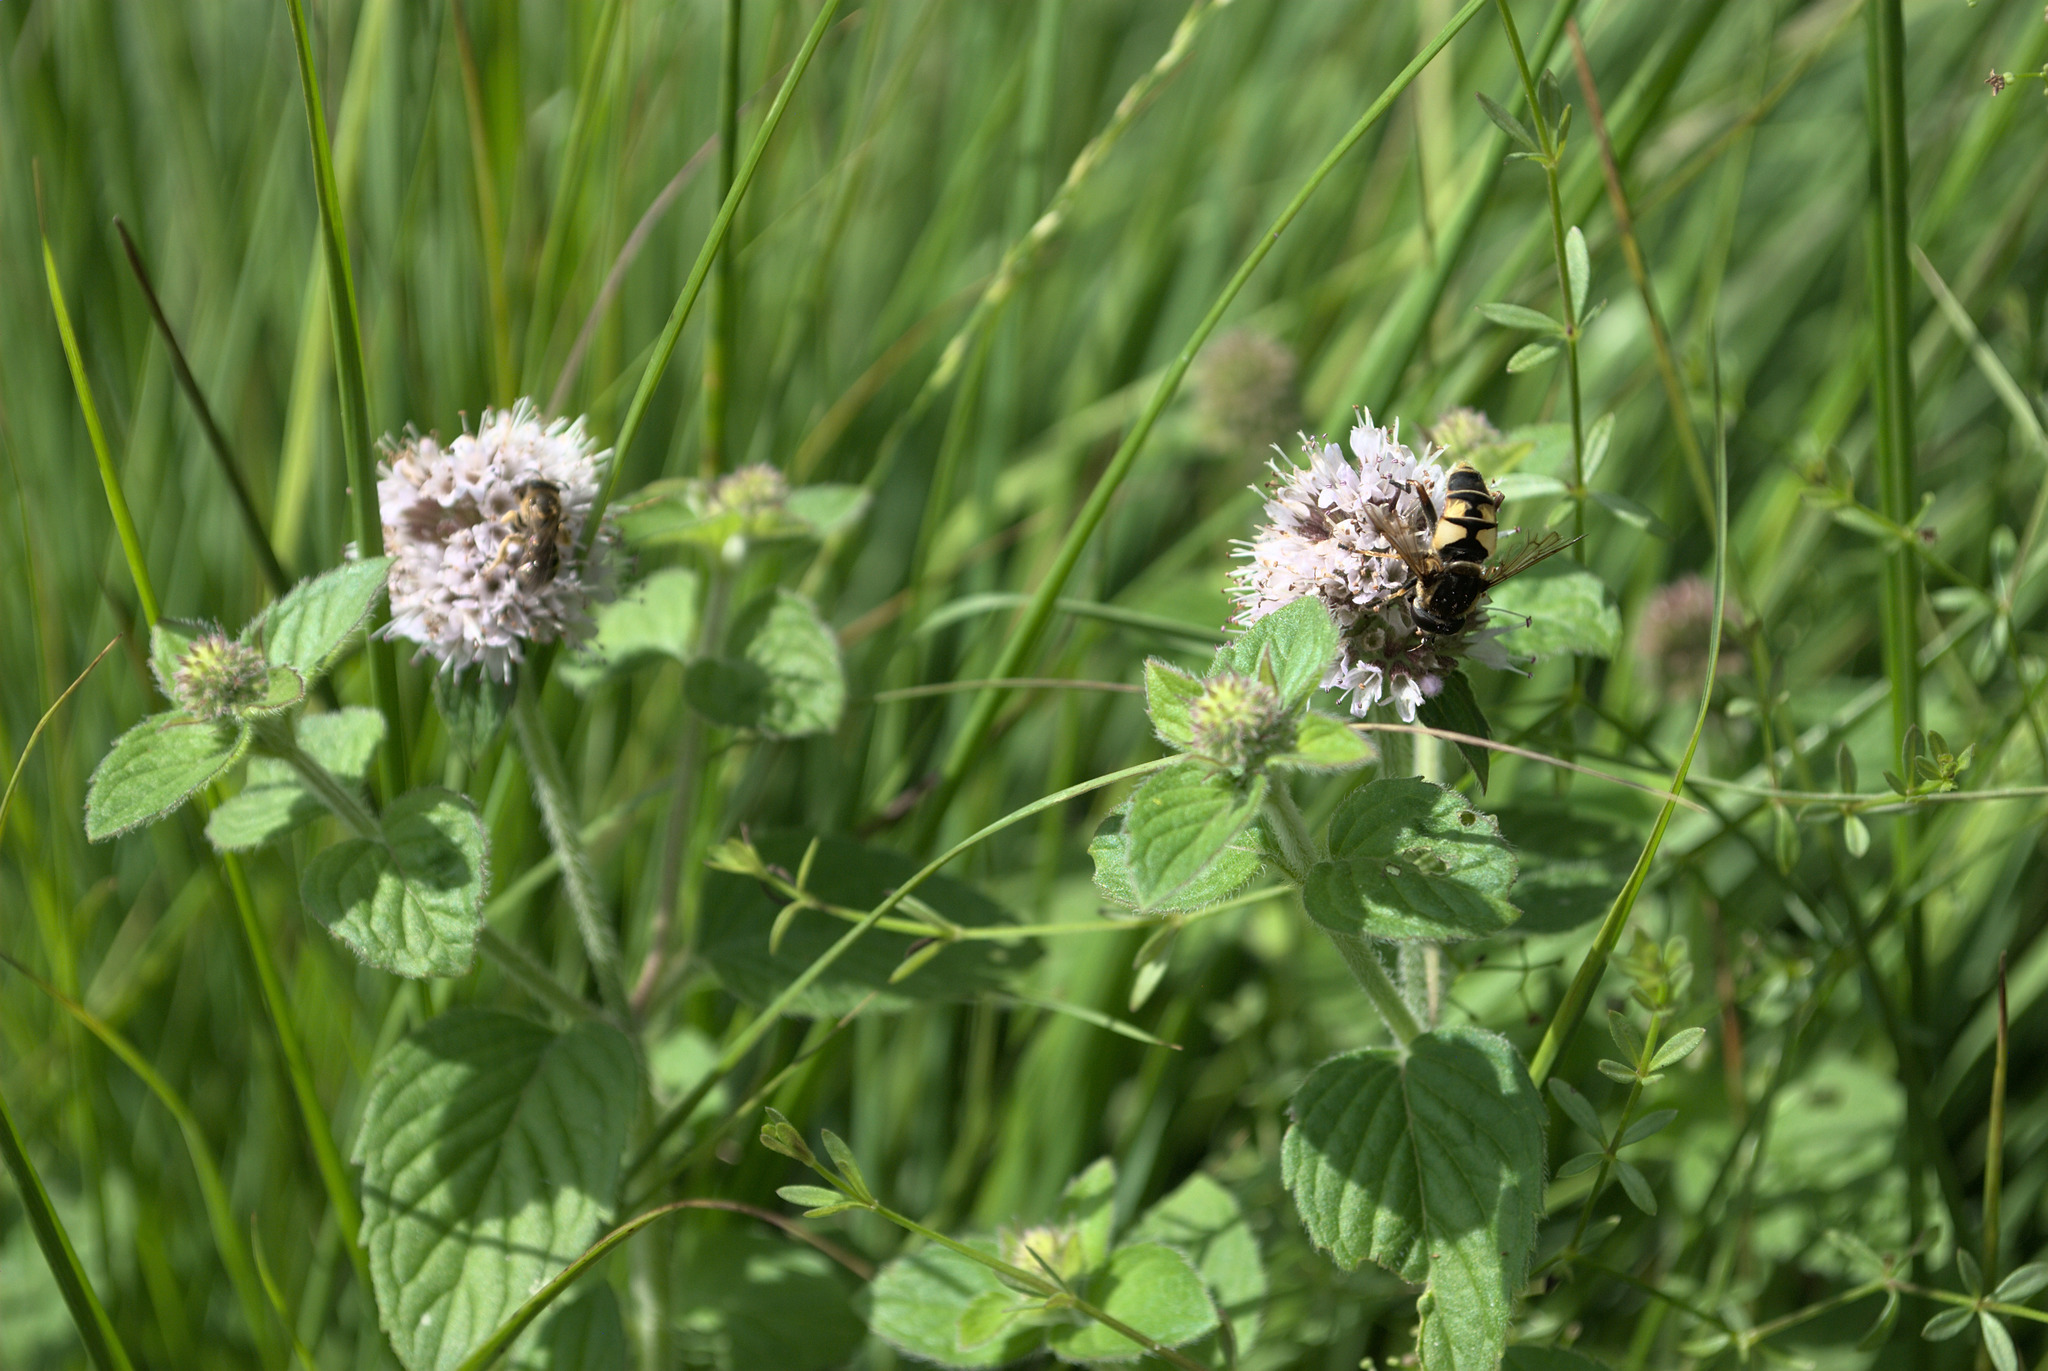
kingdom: Plantae
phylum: Tracheophyta
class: Magnoliopsida
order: Lamiales
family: Lamiaceae
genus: Mentha
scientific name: Mentha aquatica
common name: Water mint
